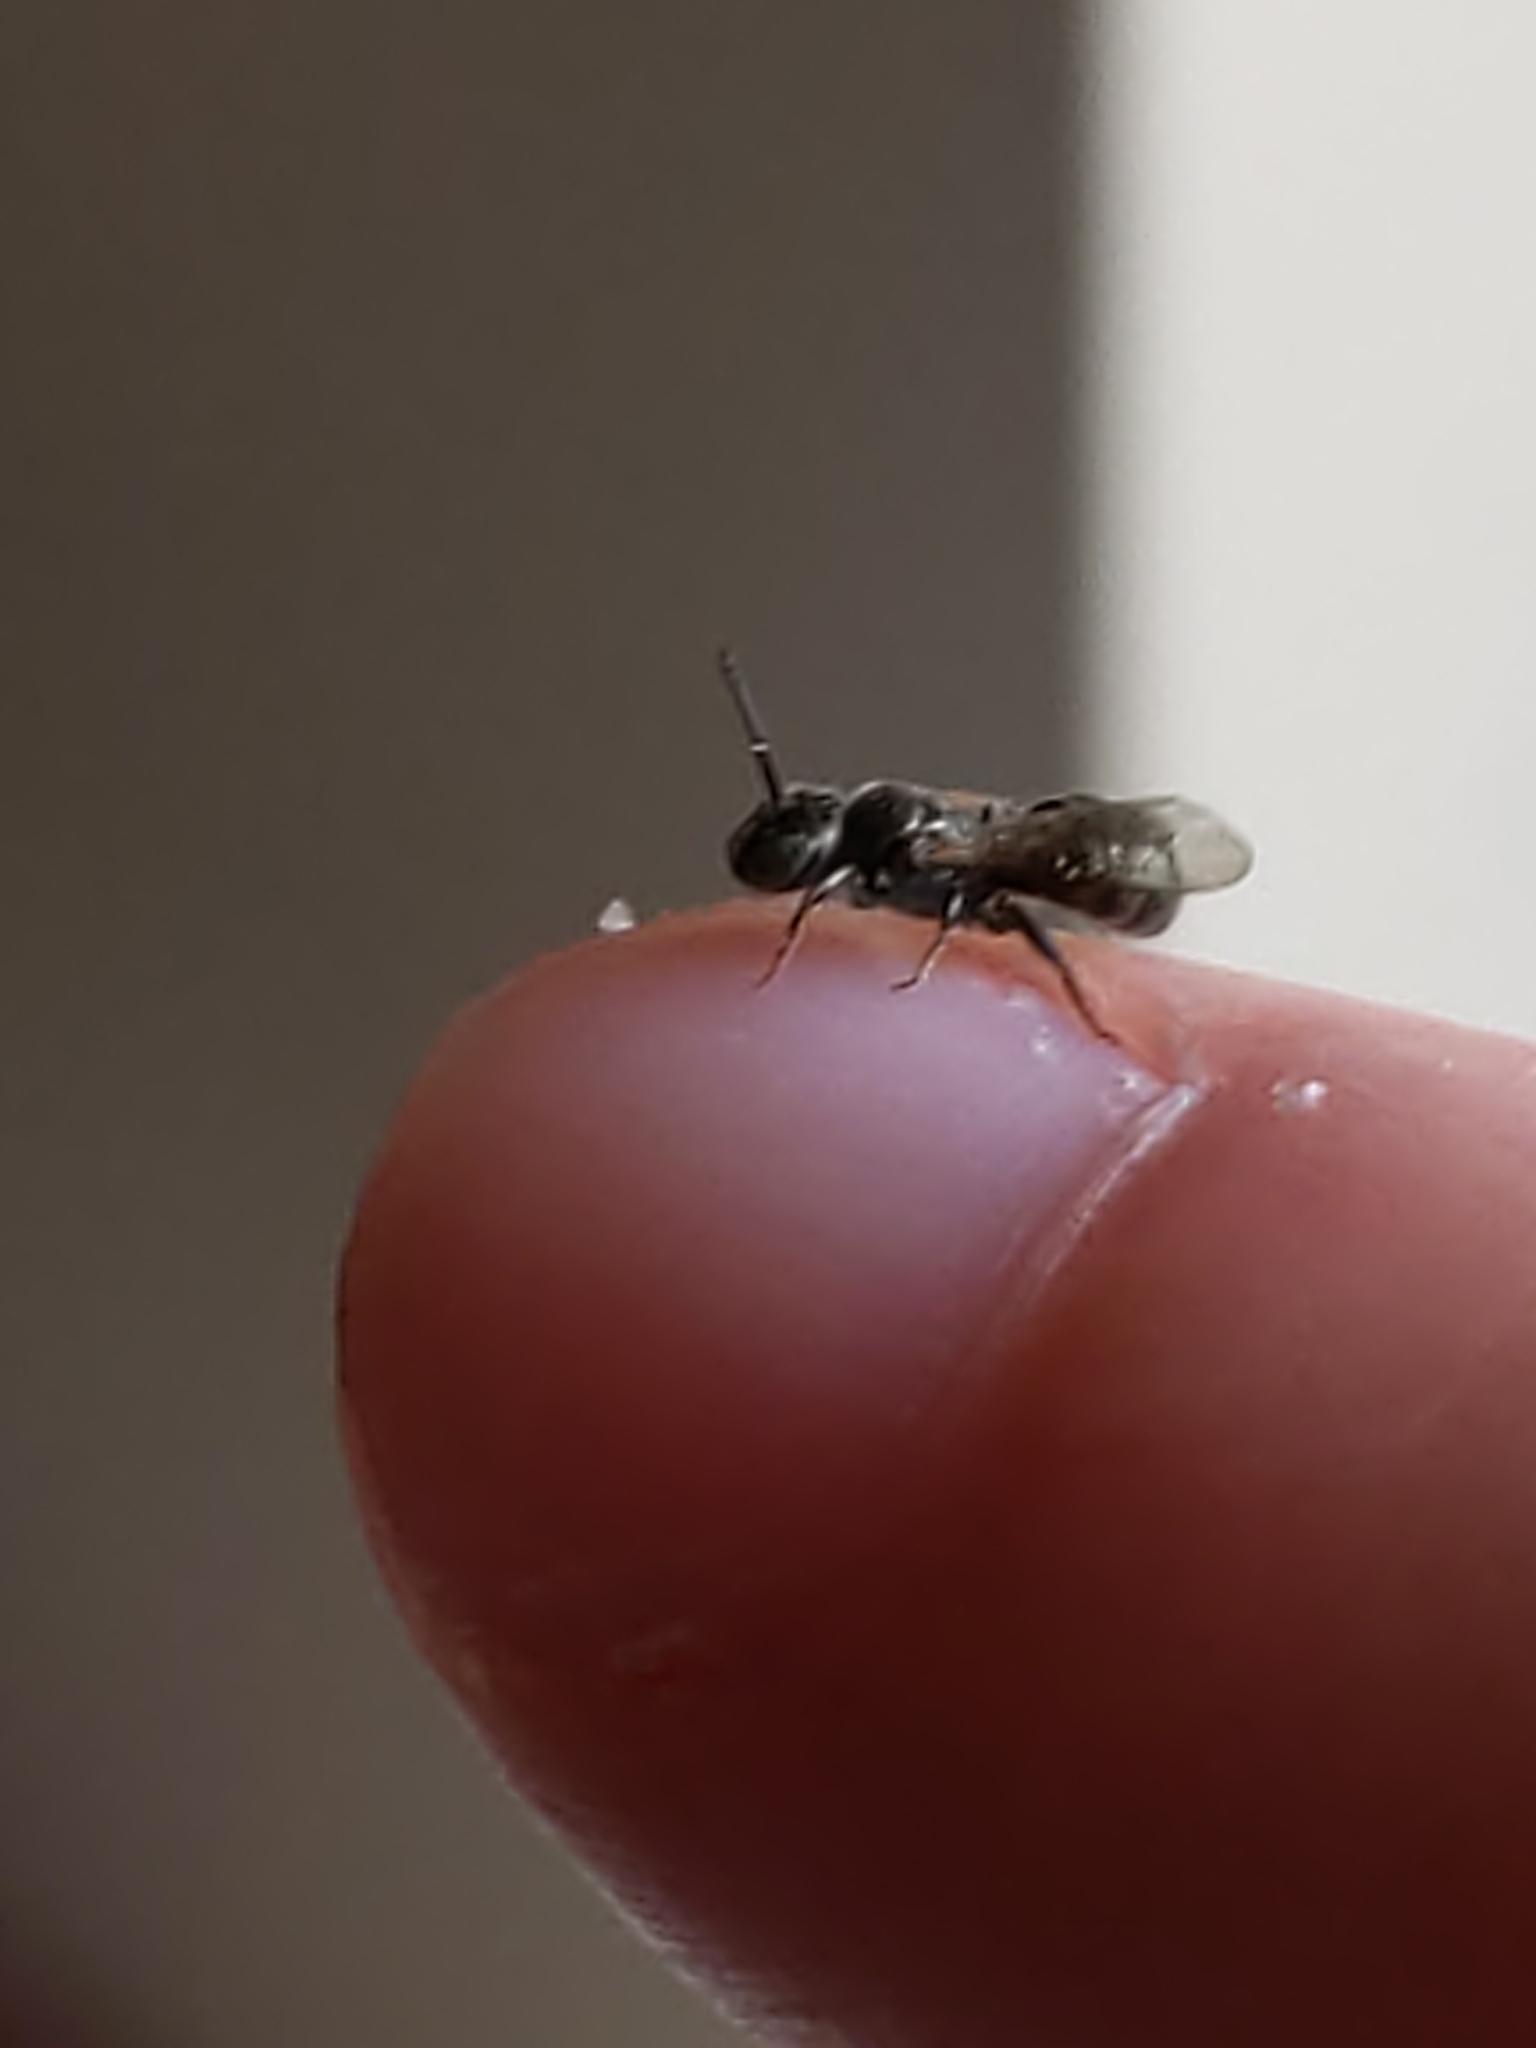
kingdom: Animalia
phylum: Arthropoda
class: Insecta
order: Hymenoptera
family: Apidae
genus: Zadontomerus
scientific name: Zadontomerus
